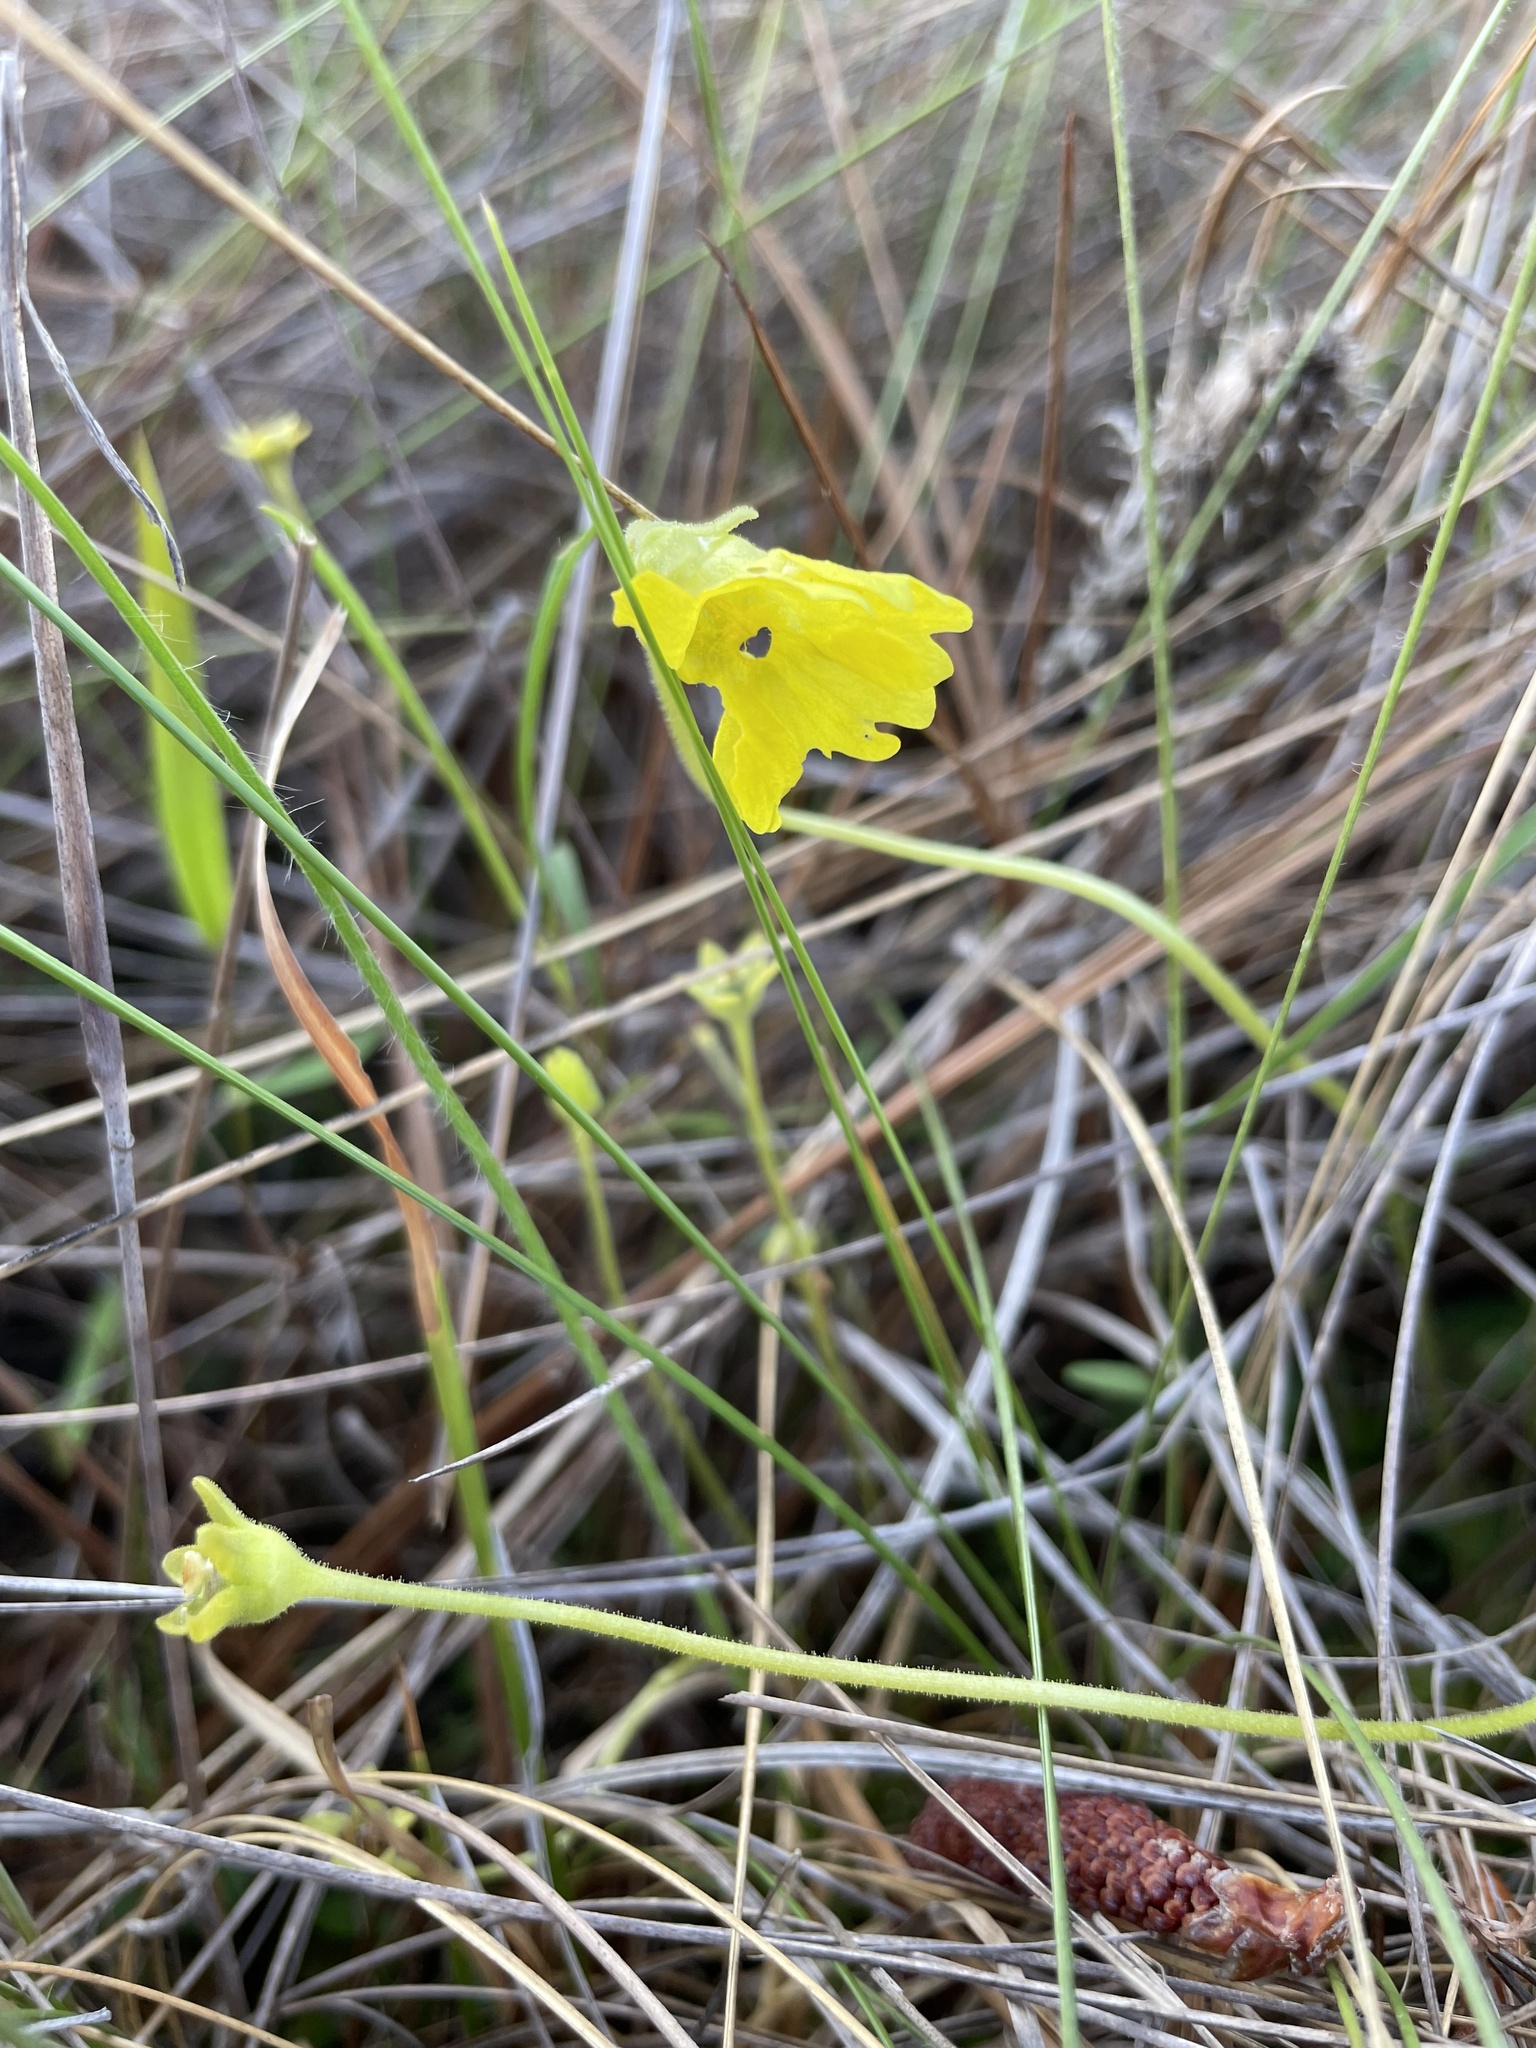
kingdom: Plantae
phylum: Tracheophyta
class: Magnoliopsida
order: Lamiales
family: Lentibulariaceae
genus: Pinguicula
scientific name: Pinguicula lutea
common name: Yellow butterwort
